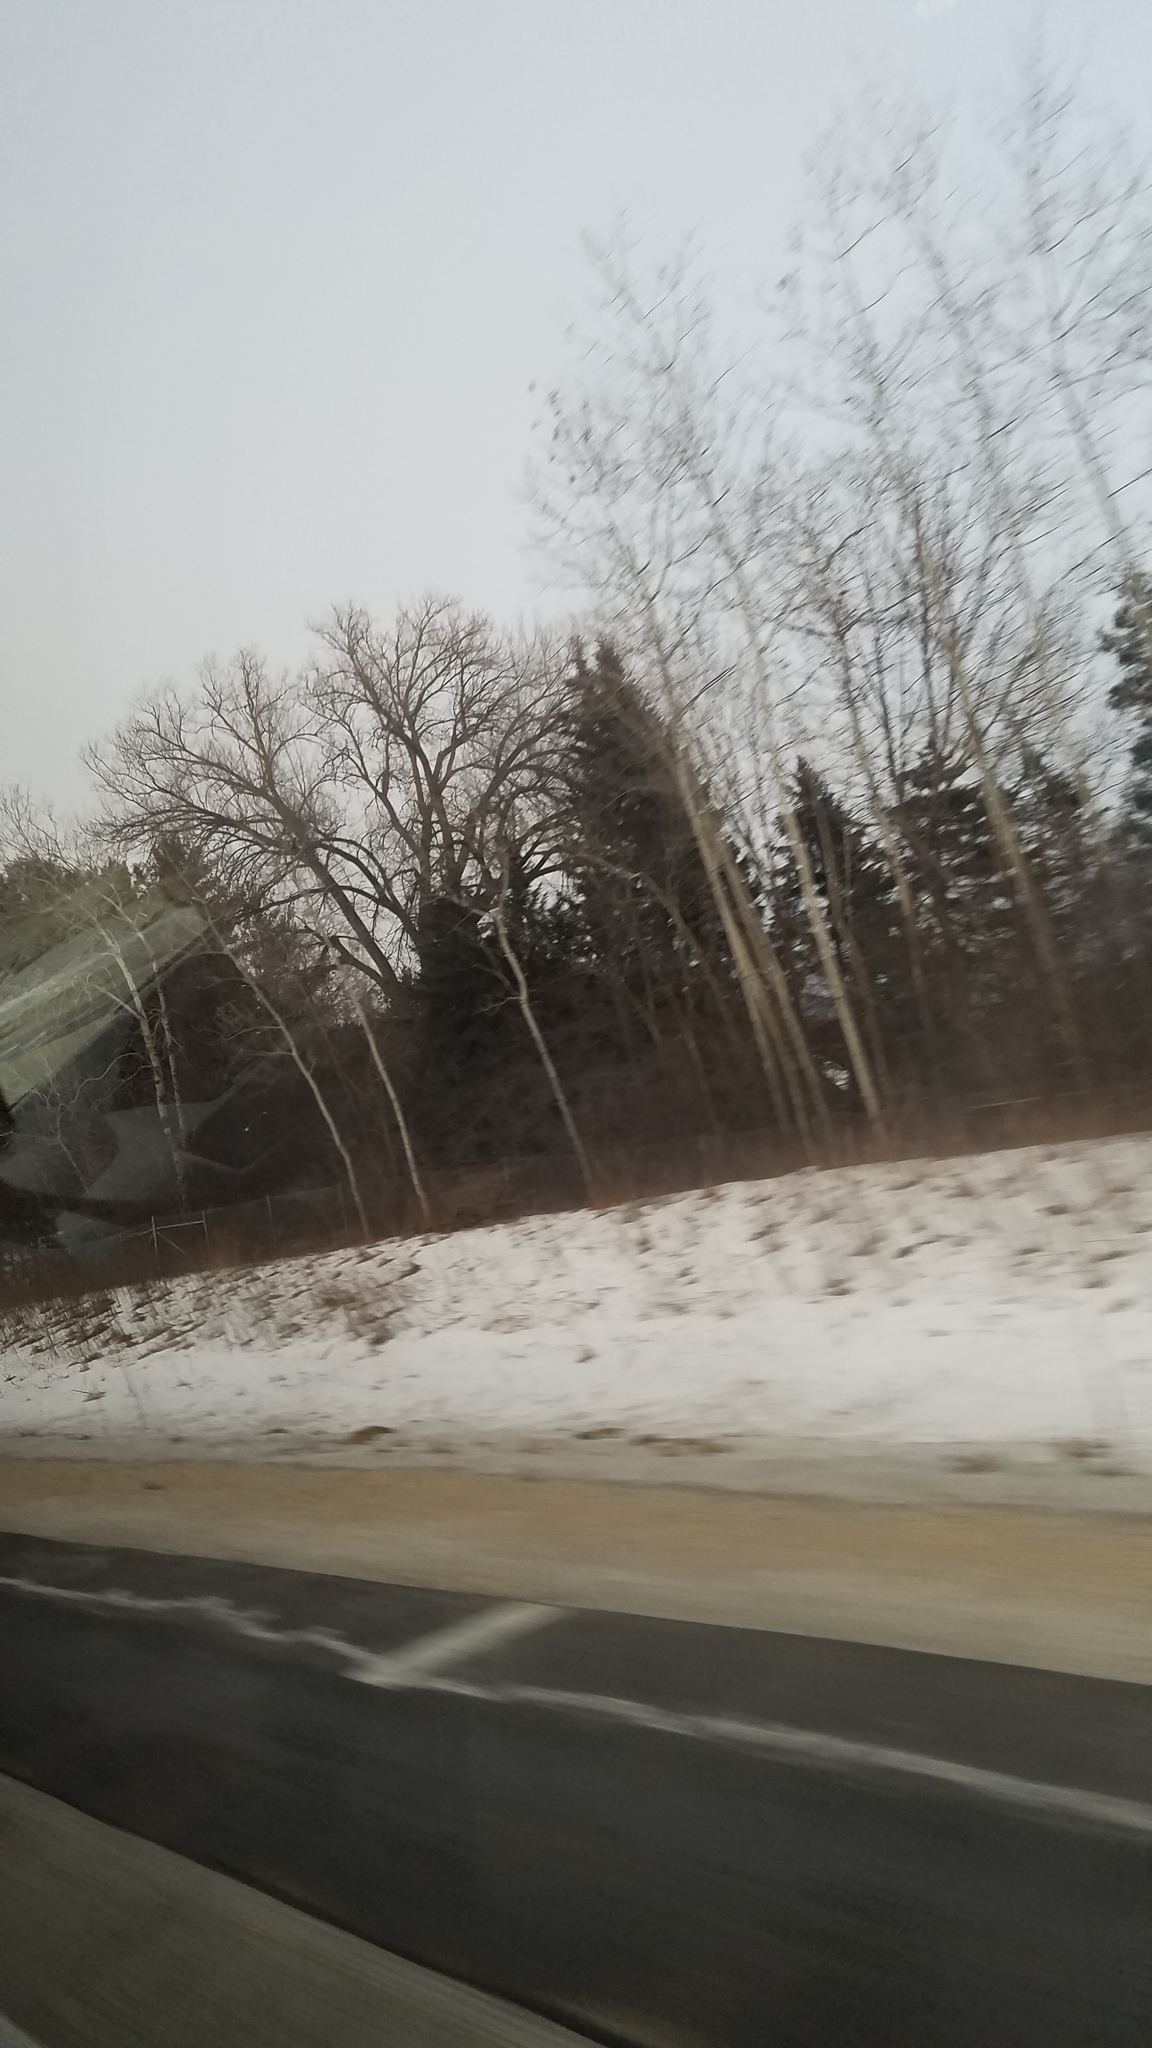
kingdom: Plantae
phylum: Tracheophyta
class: Magnoliopsida
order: Malpighiales
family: Salicaceae
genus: Populus
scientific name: Populus tremuloides
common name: Quaking aspen
